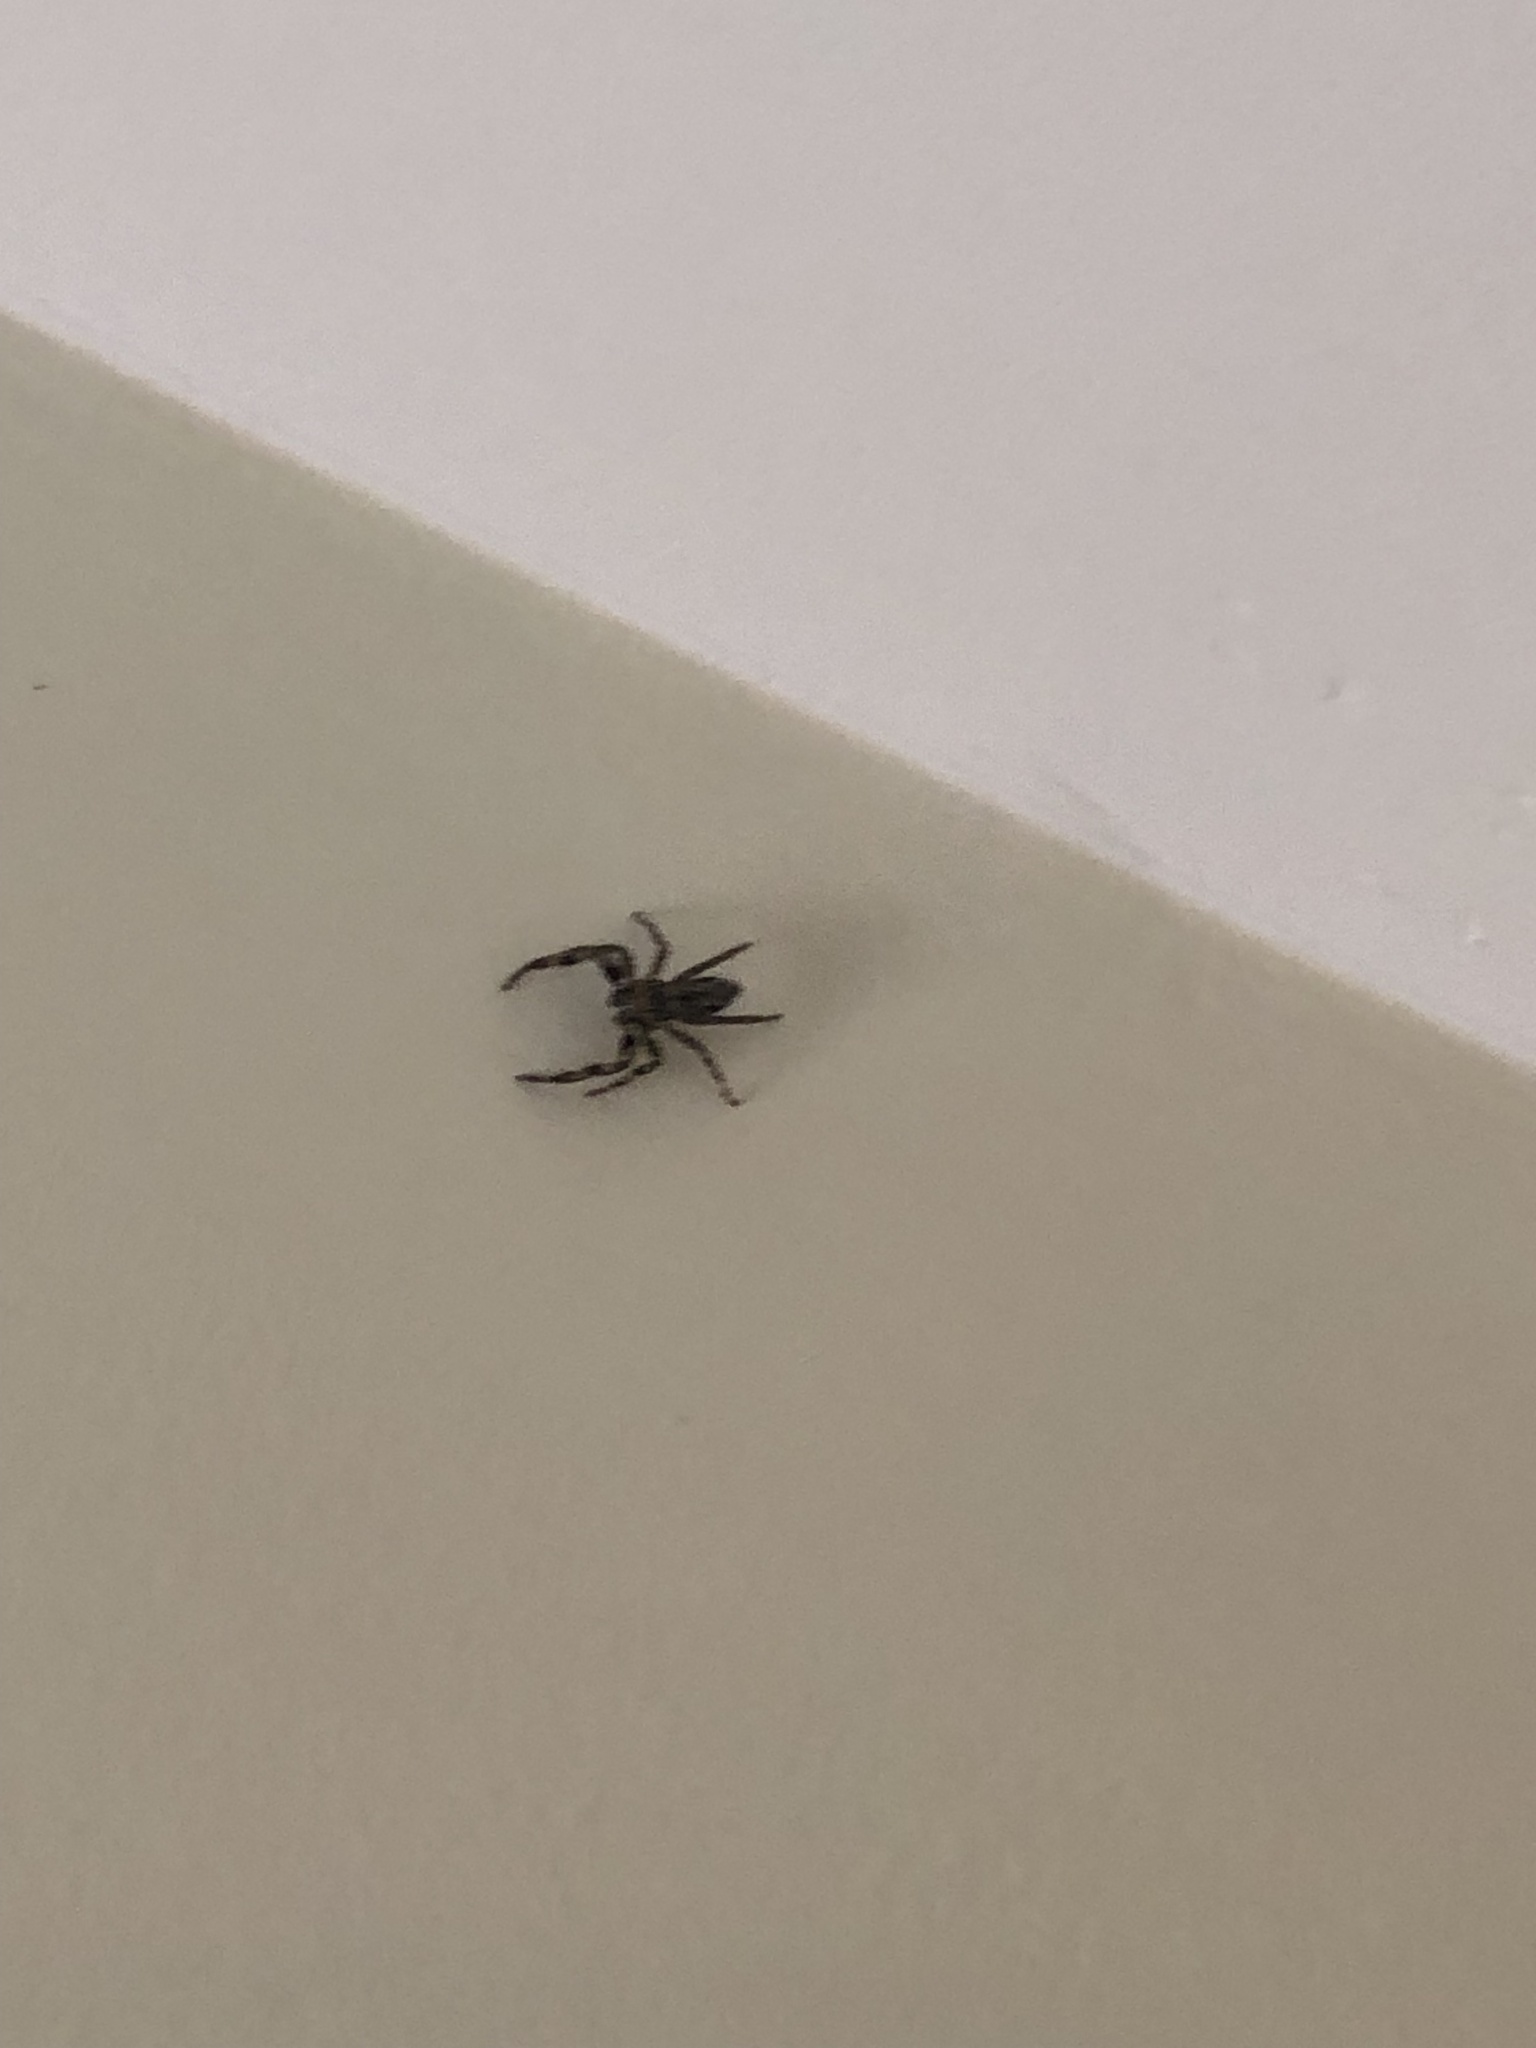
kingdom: Animalia
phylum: Arthropoda
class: Arachnida
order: Araneae
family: Salticidae
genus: Platycryptus
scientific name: Platycryptus undatus
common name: Tan jumping spider
